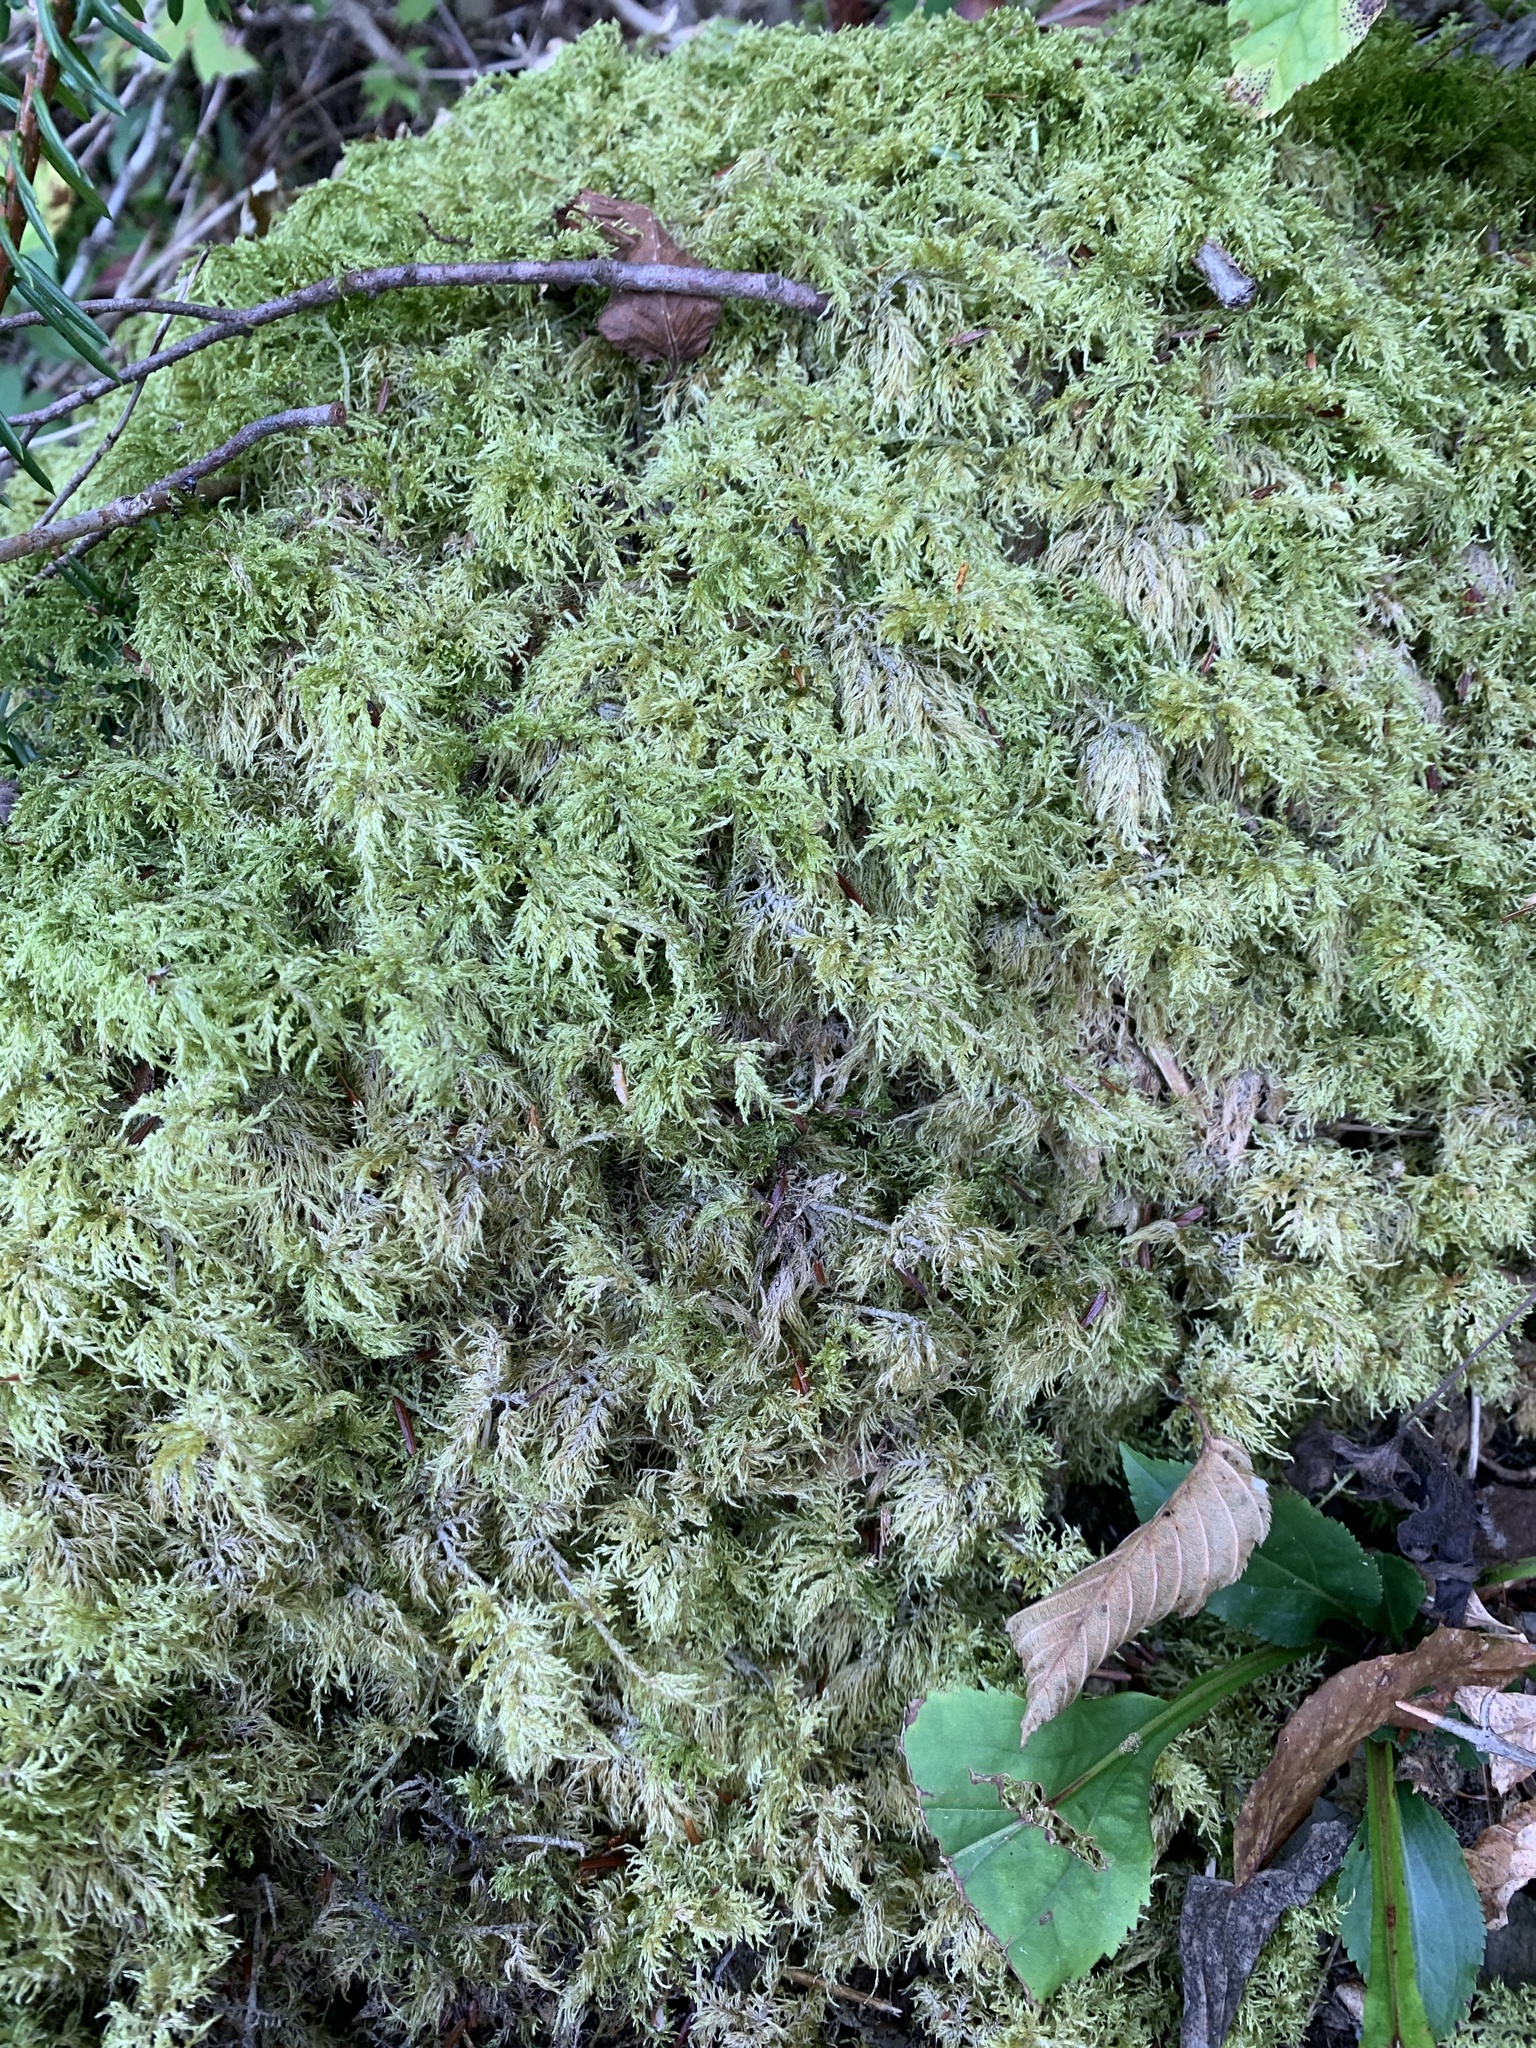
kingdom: Plantae
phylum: Bryophyta
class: Bryopsida
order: Hypnales
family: Hylocomiaceae
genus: Hylocomium
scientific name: Hylocomium splendens
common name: Stairstep moss
